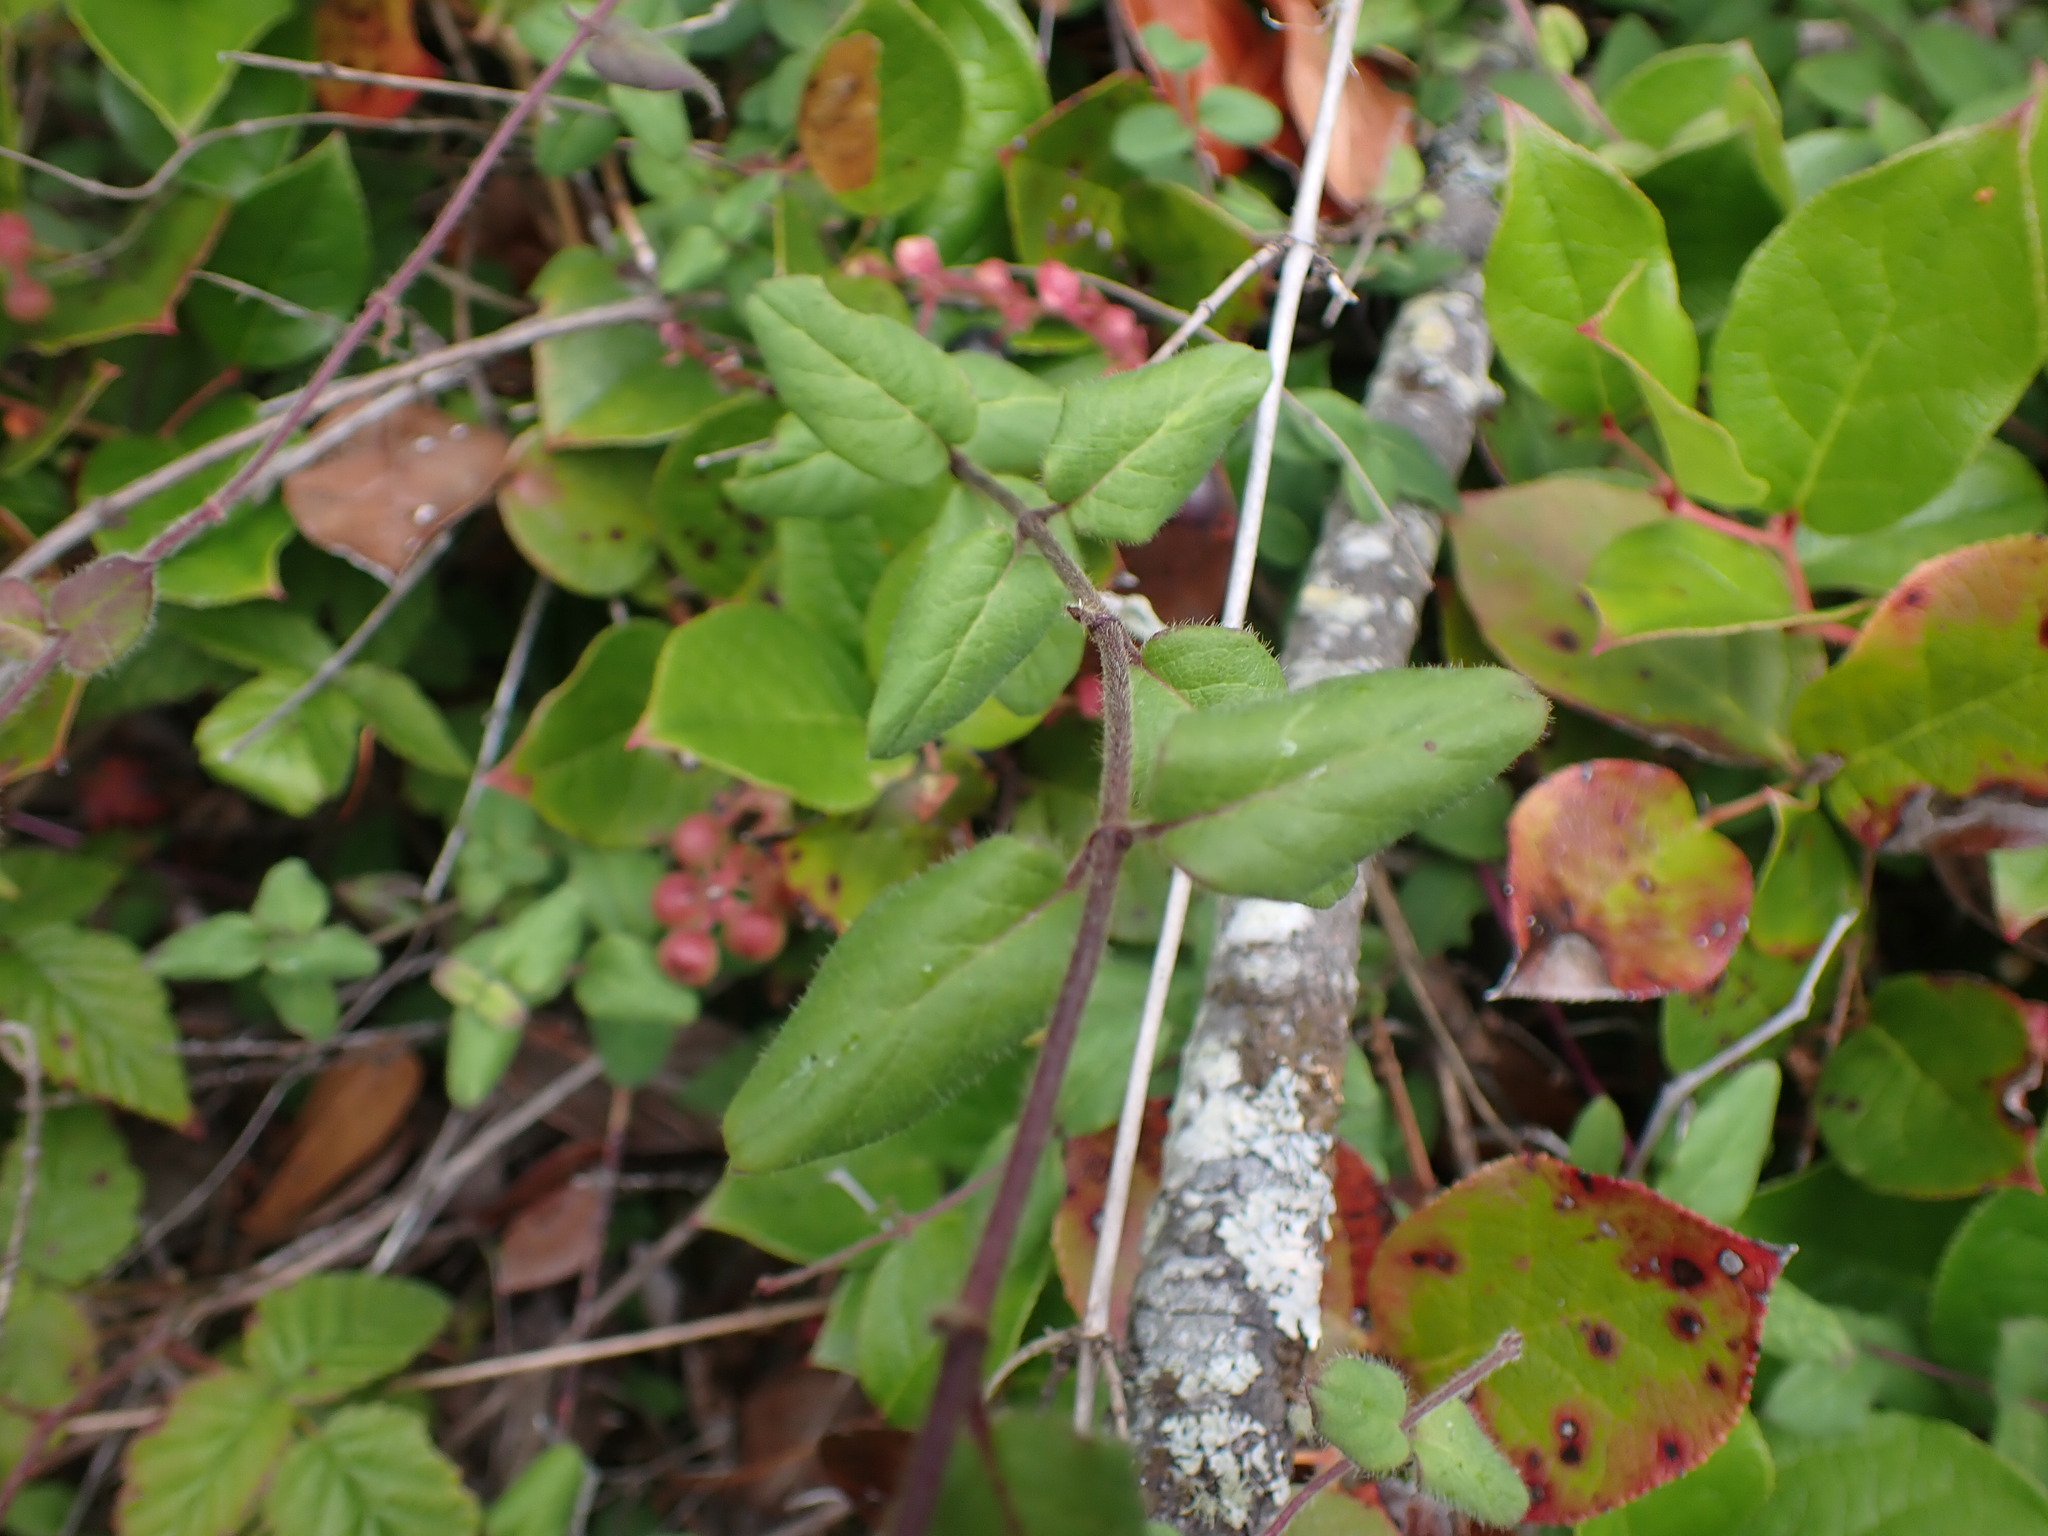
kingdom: Plantae
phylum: Tracheophyta
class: Magnoliopsida
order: Dipsacales
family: Caprifoliaceae
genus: Lonicera
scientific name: Lonicera hispidula
